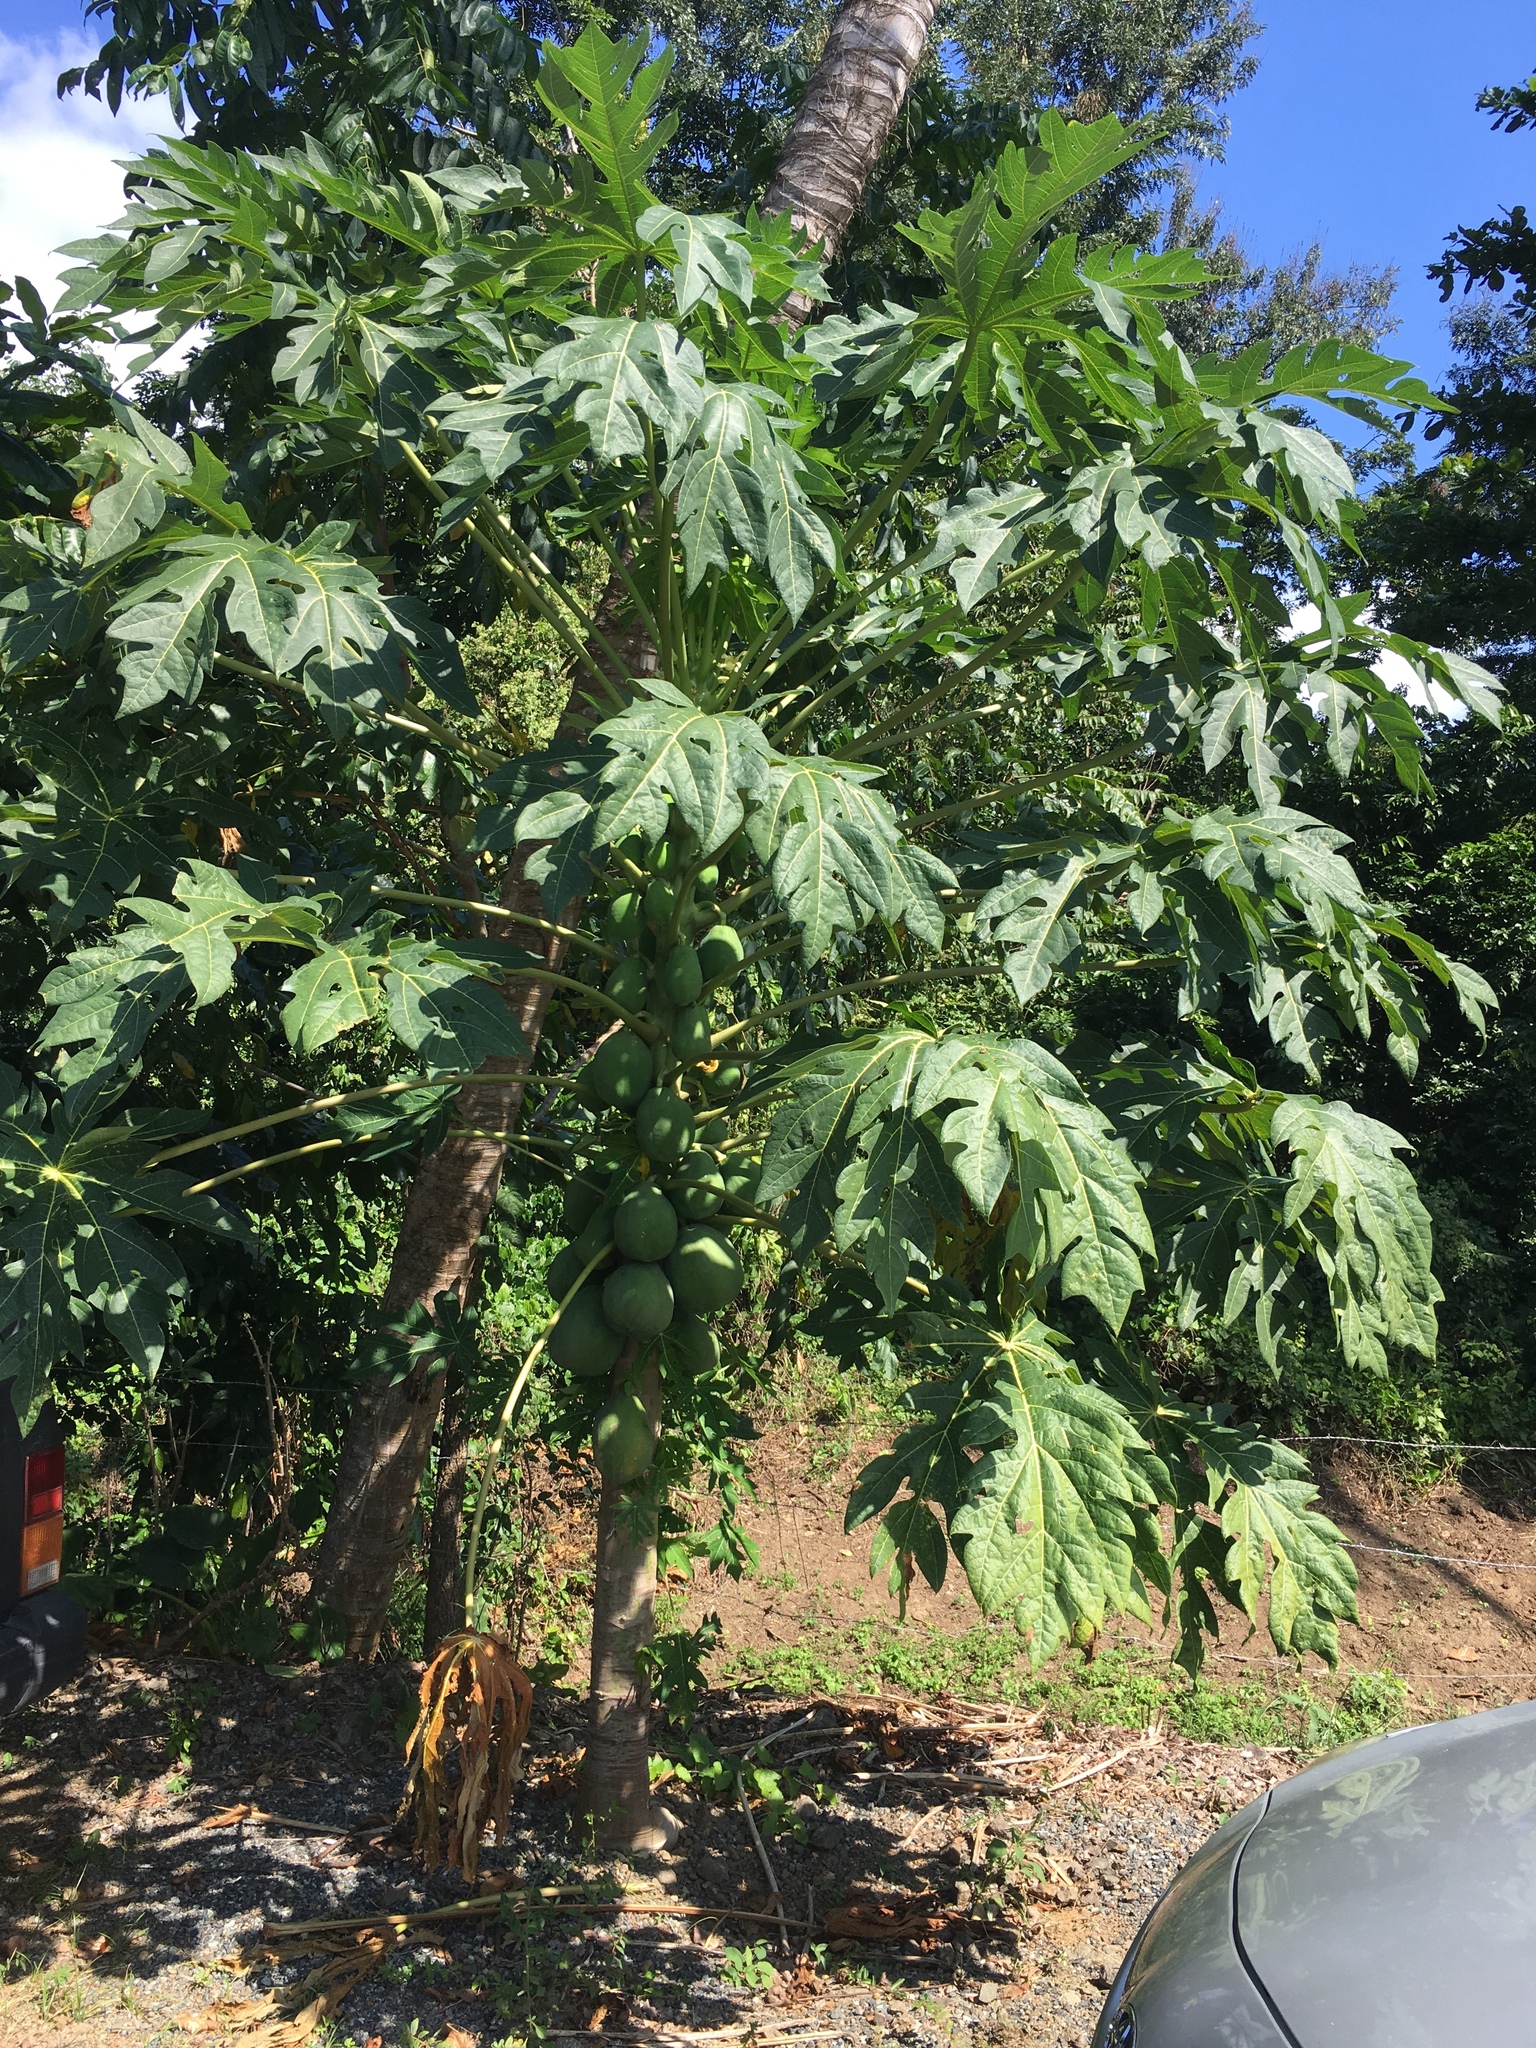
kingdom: Plantae
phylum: Tracheophyta
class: Magnoliopsida
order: Brassicales
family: Caricaceae
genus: Carica
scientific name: Carica papaya
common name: Papaya
